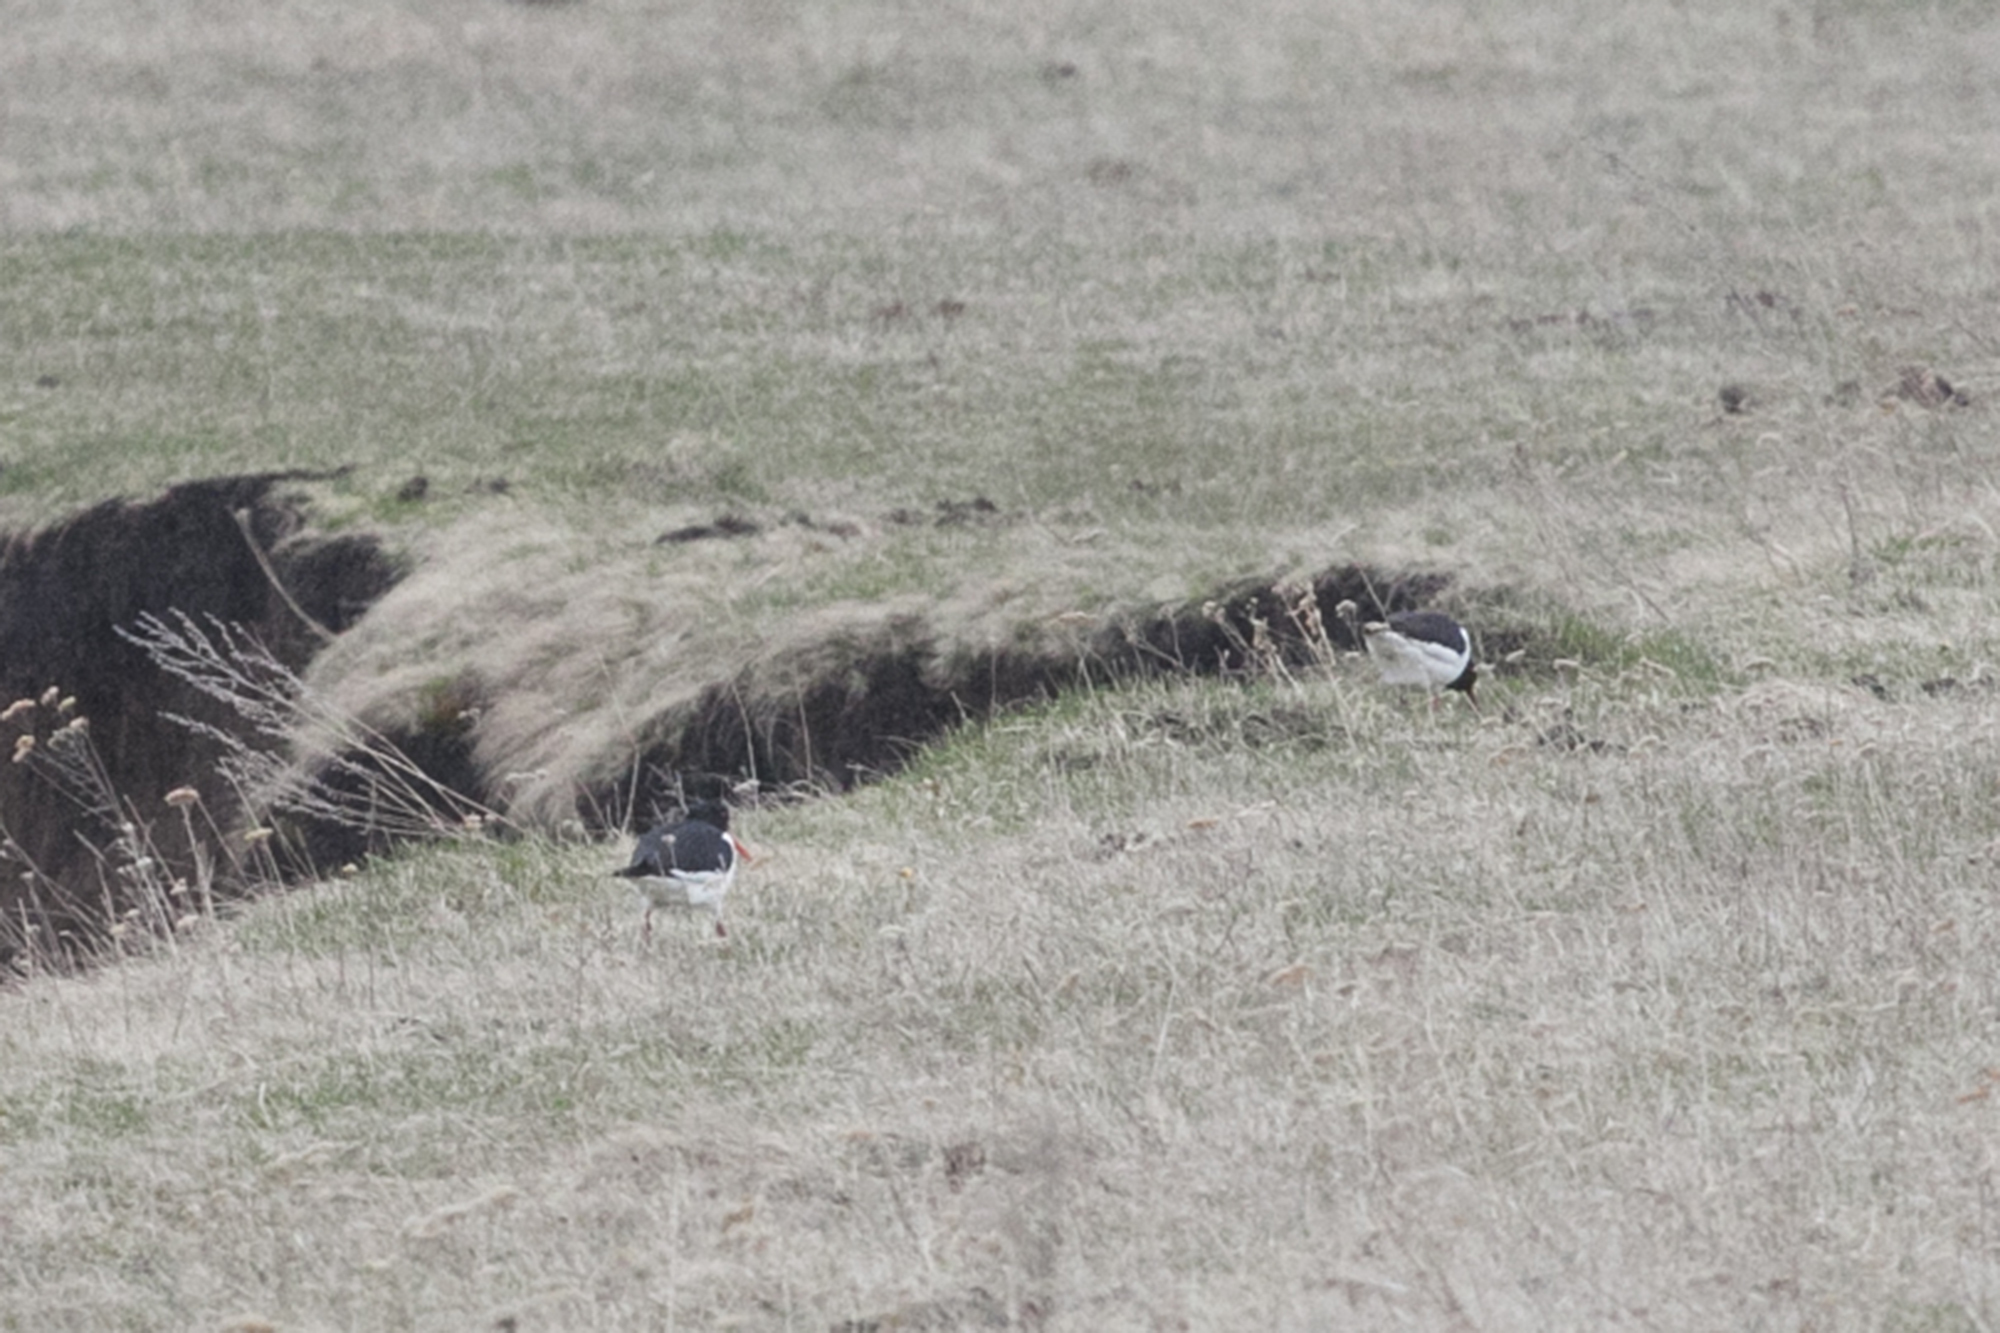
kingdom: Animalia
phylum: Chordata
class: Aves
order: Charadriiformes
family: Haematopodidae
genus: Haematopus
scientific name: Haematopus ostralegus
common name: Eurasian oystercatcher
